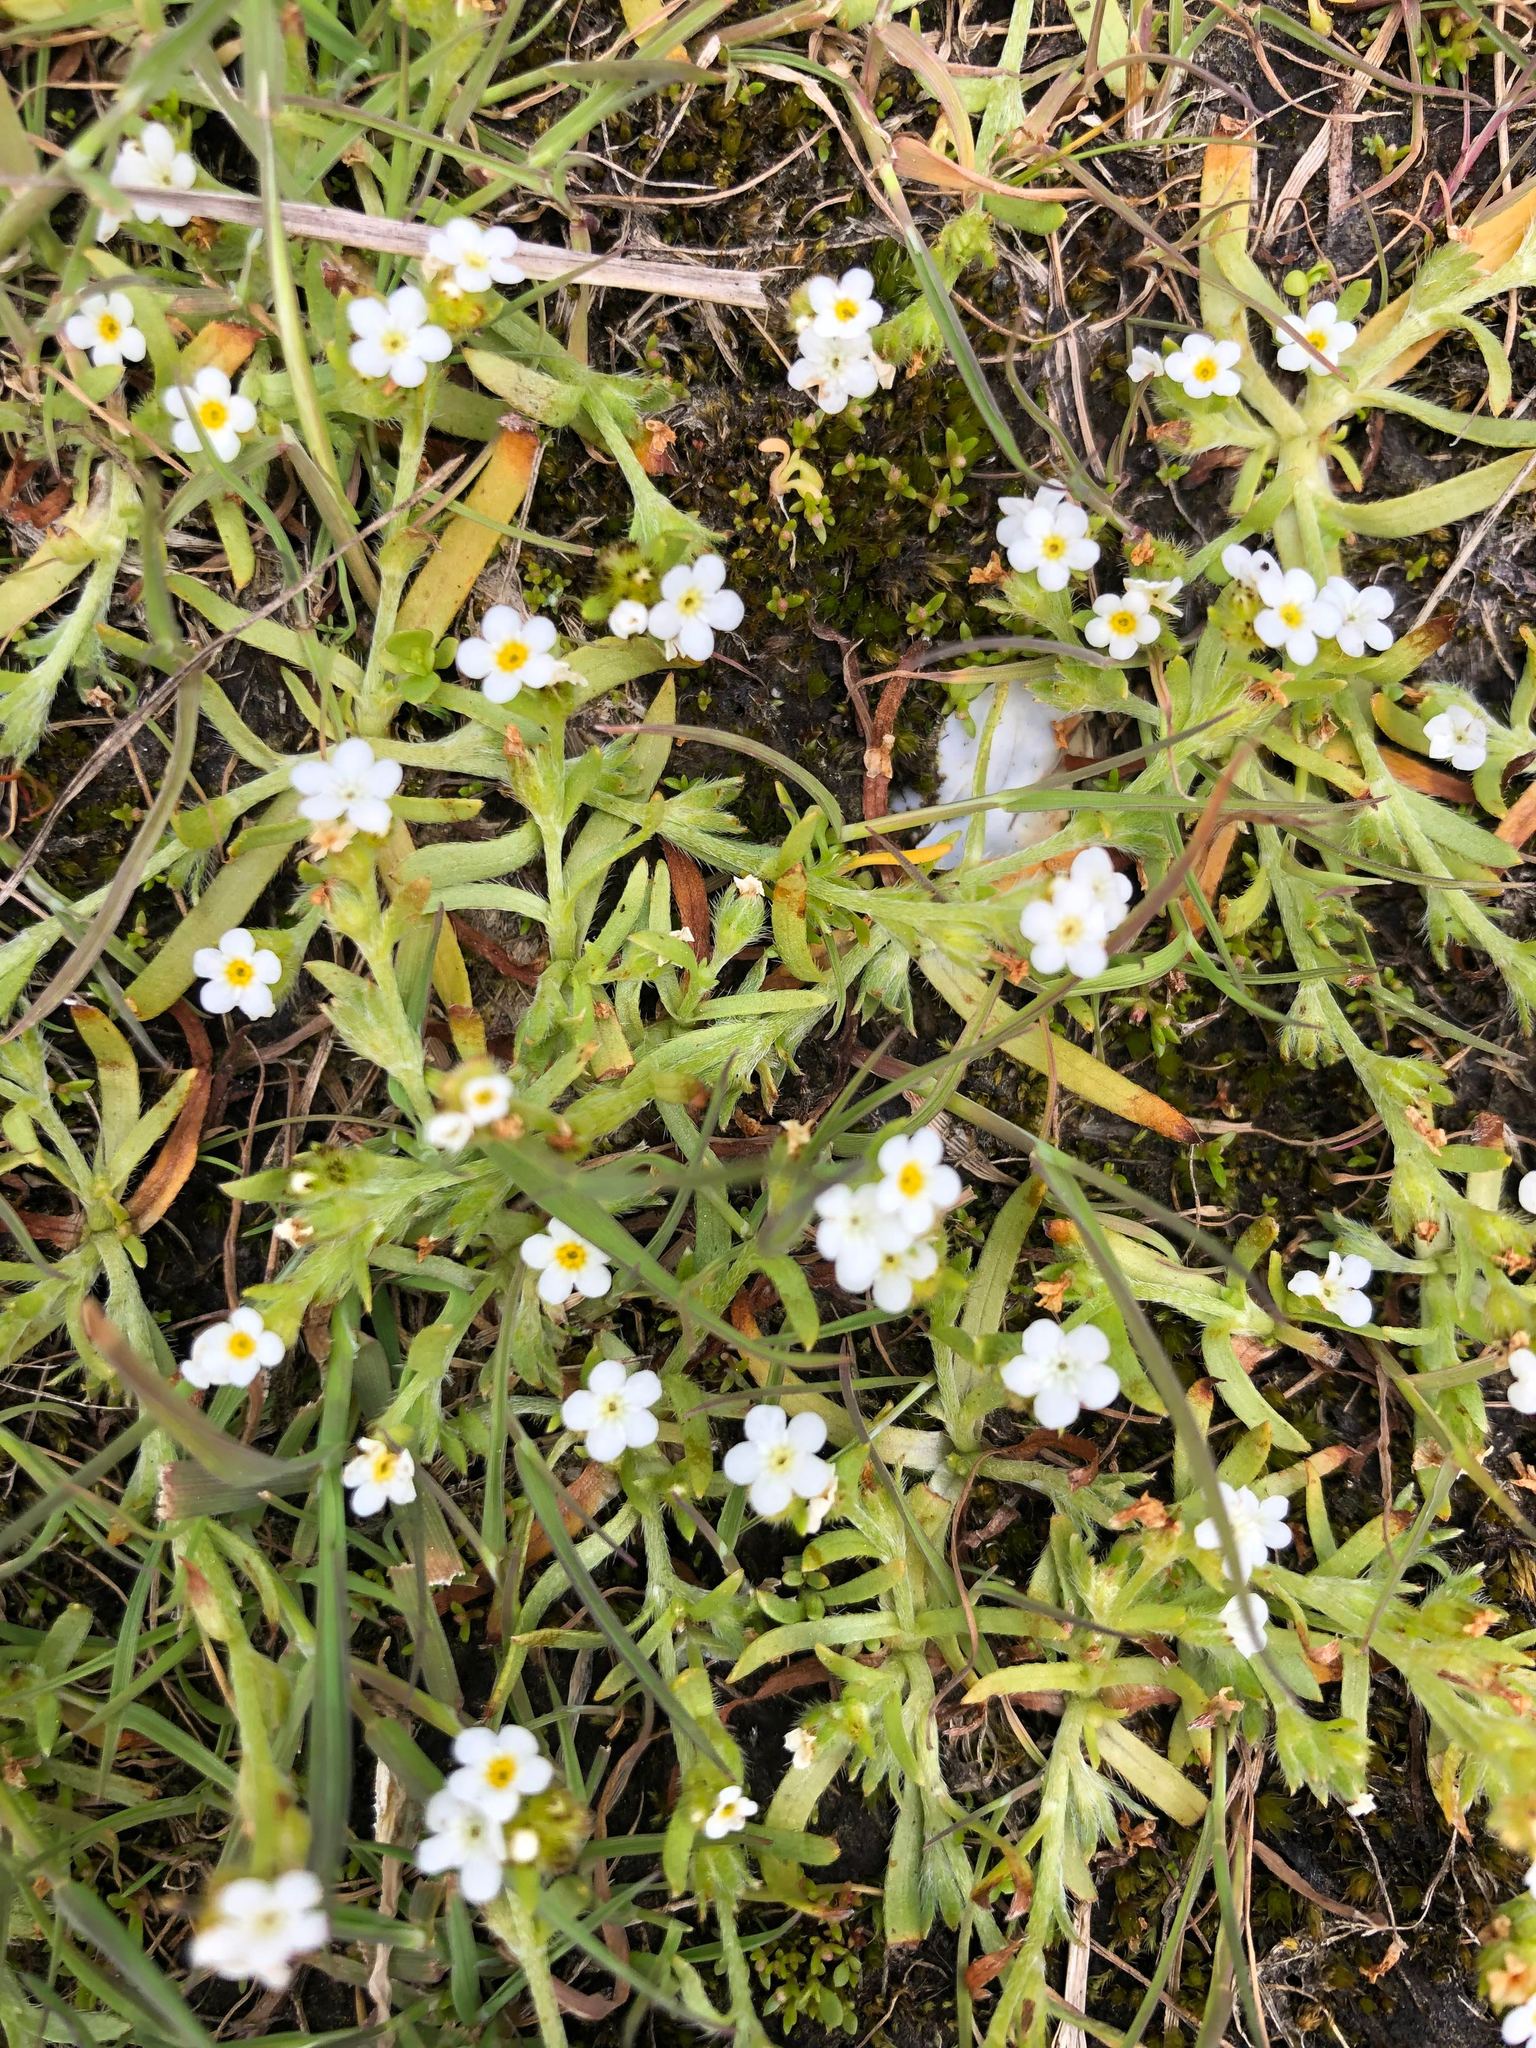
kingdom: Plantae
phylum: Tracheophyta
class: Magnoliopsida
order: Boraginales
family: Boraginaceae
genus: Plagiobothrys
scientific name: Plagiobothrys scouleri
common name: White forget-me-not
